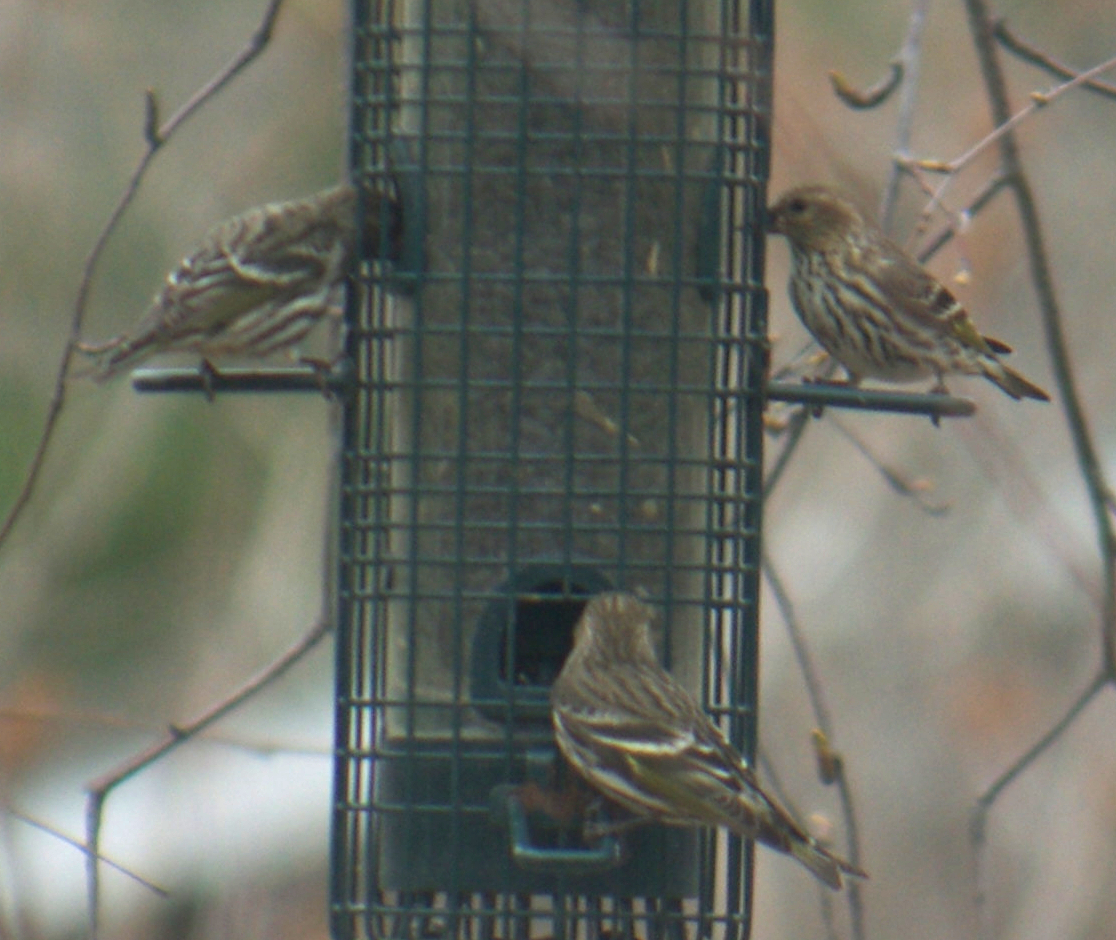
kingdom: Animalia
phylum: Chordata
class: Aves
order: Passeriformes
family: Fringillidae
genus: Spinus
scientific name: Spinus pinus
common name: Pine siskin
